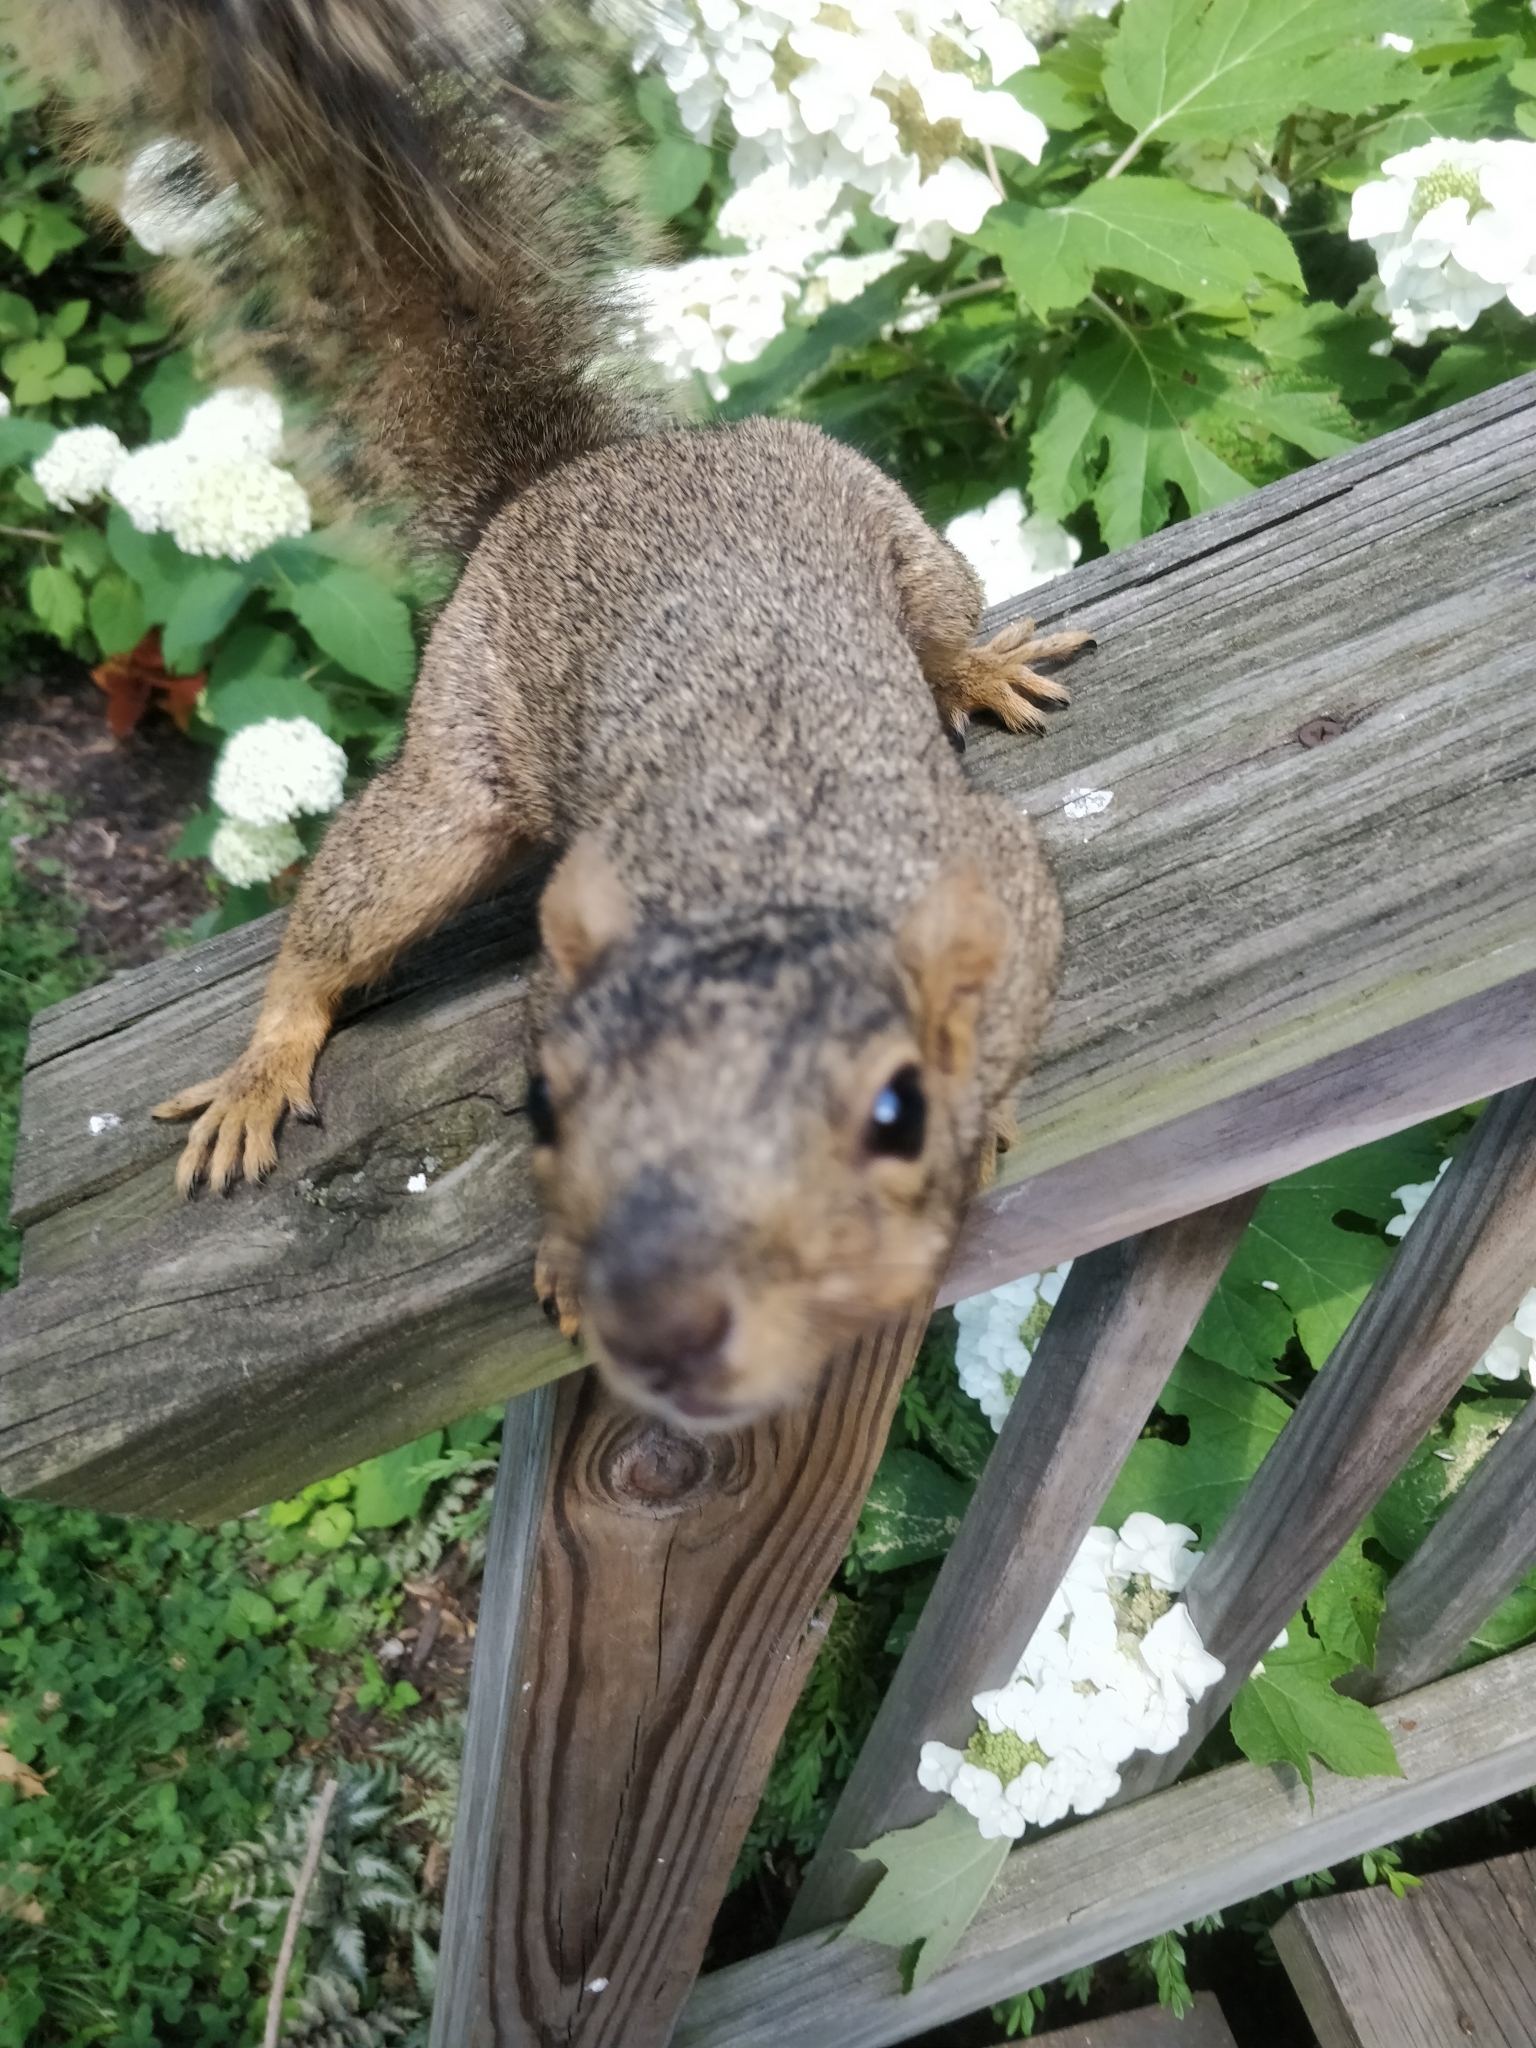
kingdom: Animalia
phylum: Chordata
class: Mammalia
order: Rodentia
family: Sciuridae
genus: Sciurus
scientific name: Sciurus niger
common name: Fox squirrel
